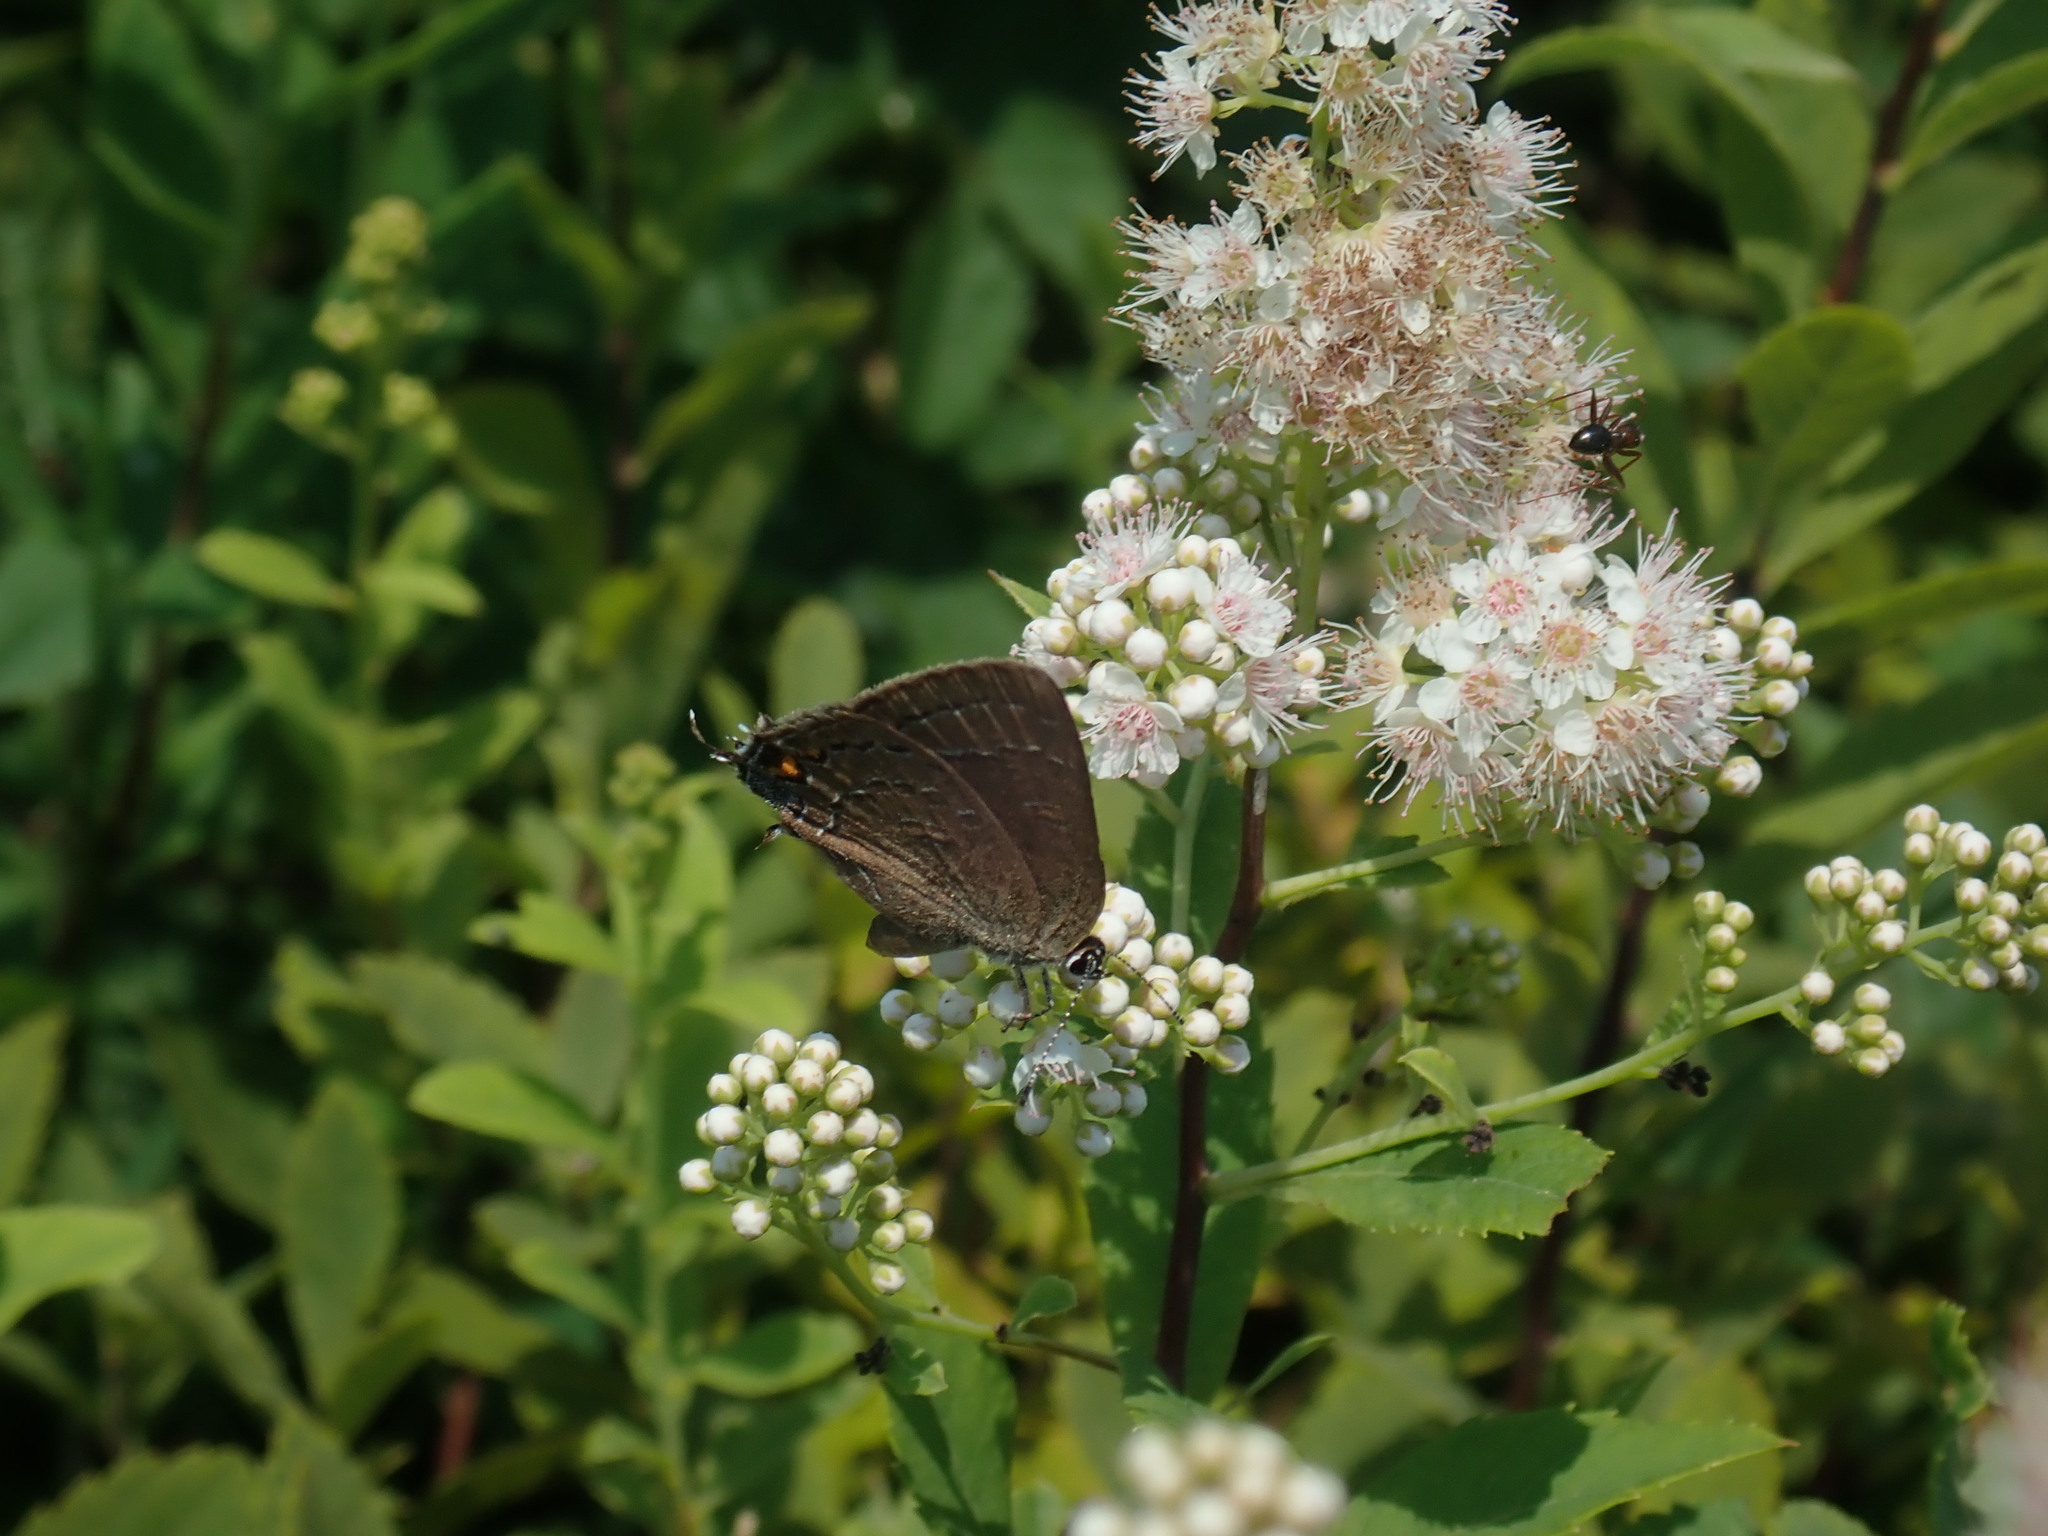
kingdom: Animalia
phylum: Arthropoda
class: Insecta
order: Lepidoptera
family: Lycaenidae
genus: Satyrium
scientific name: Satyrium calanus
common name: Banded hairstreak
